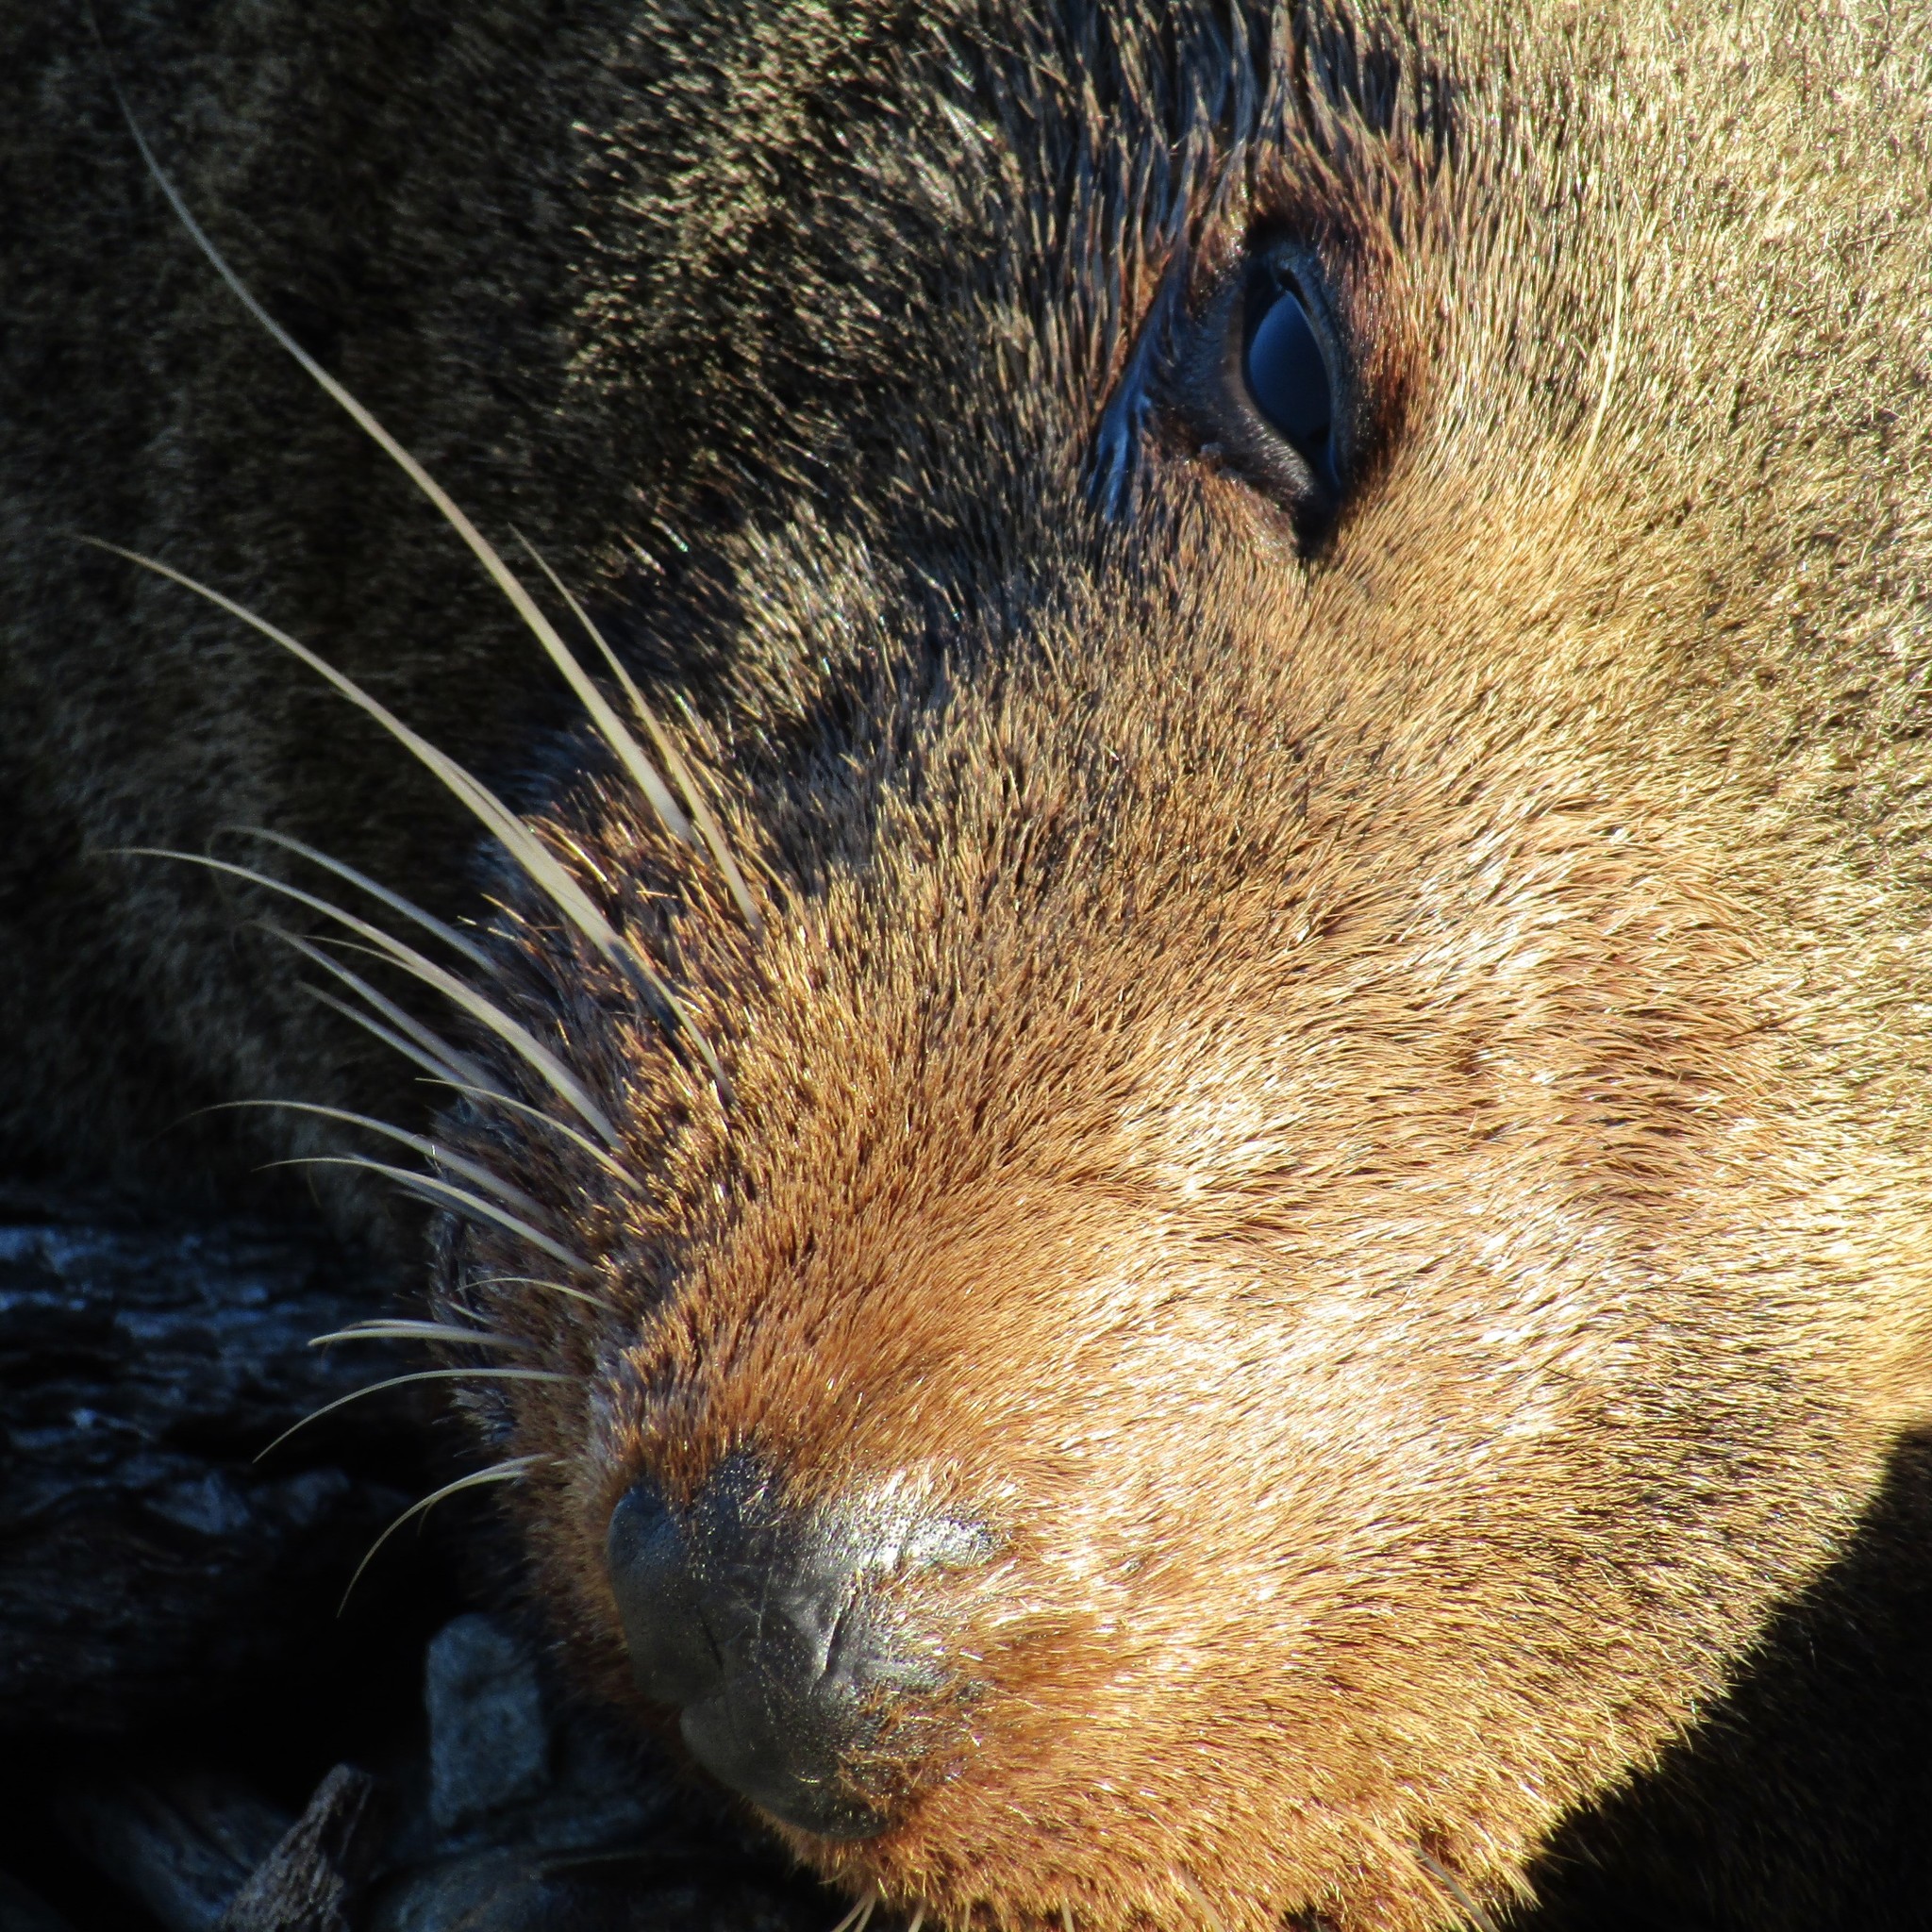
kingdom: Animalia
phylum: Chordata
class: Mammalia
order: Carnivora
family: Otariidae
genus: Arctocephalus
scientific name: Arctocephalus forsteri
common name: New zealand fur seal
